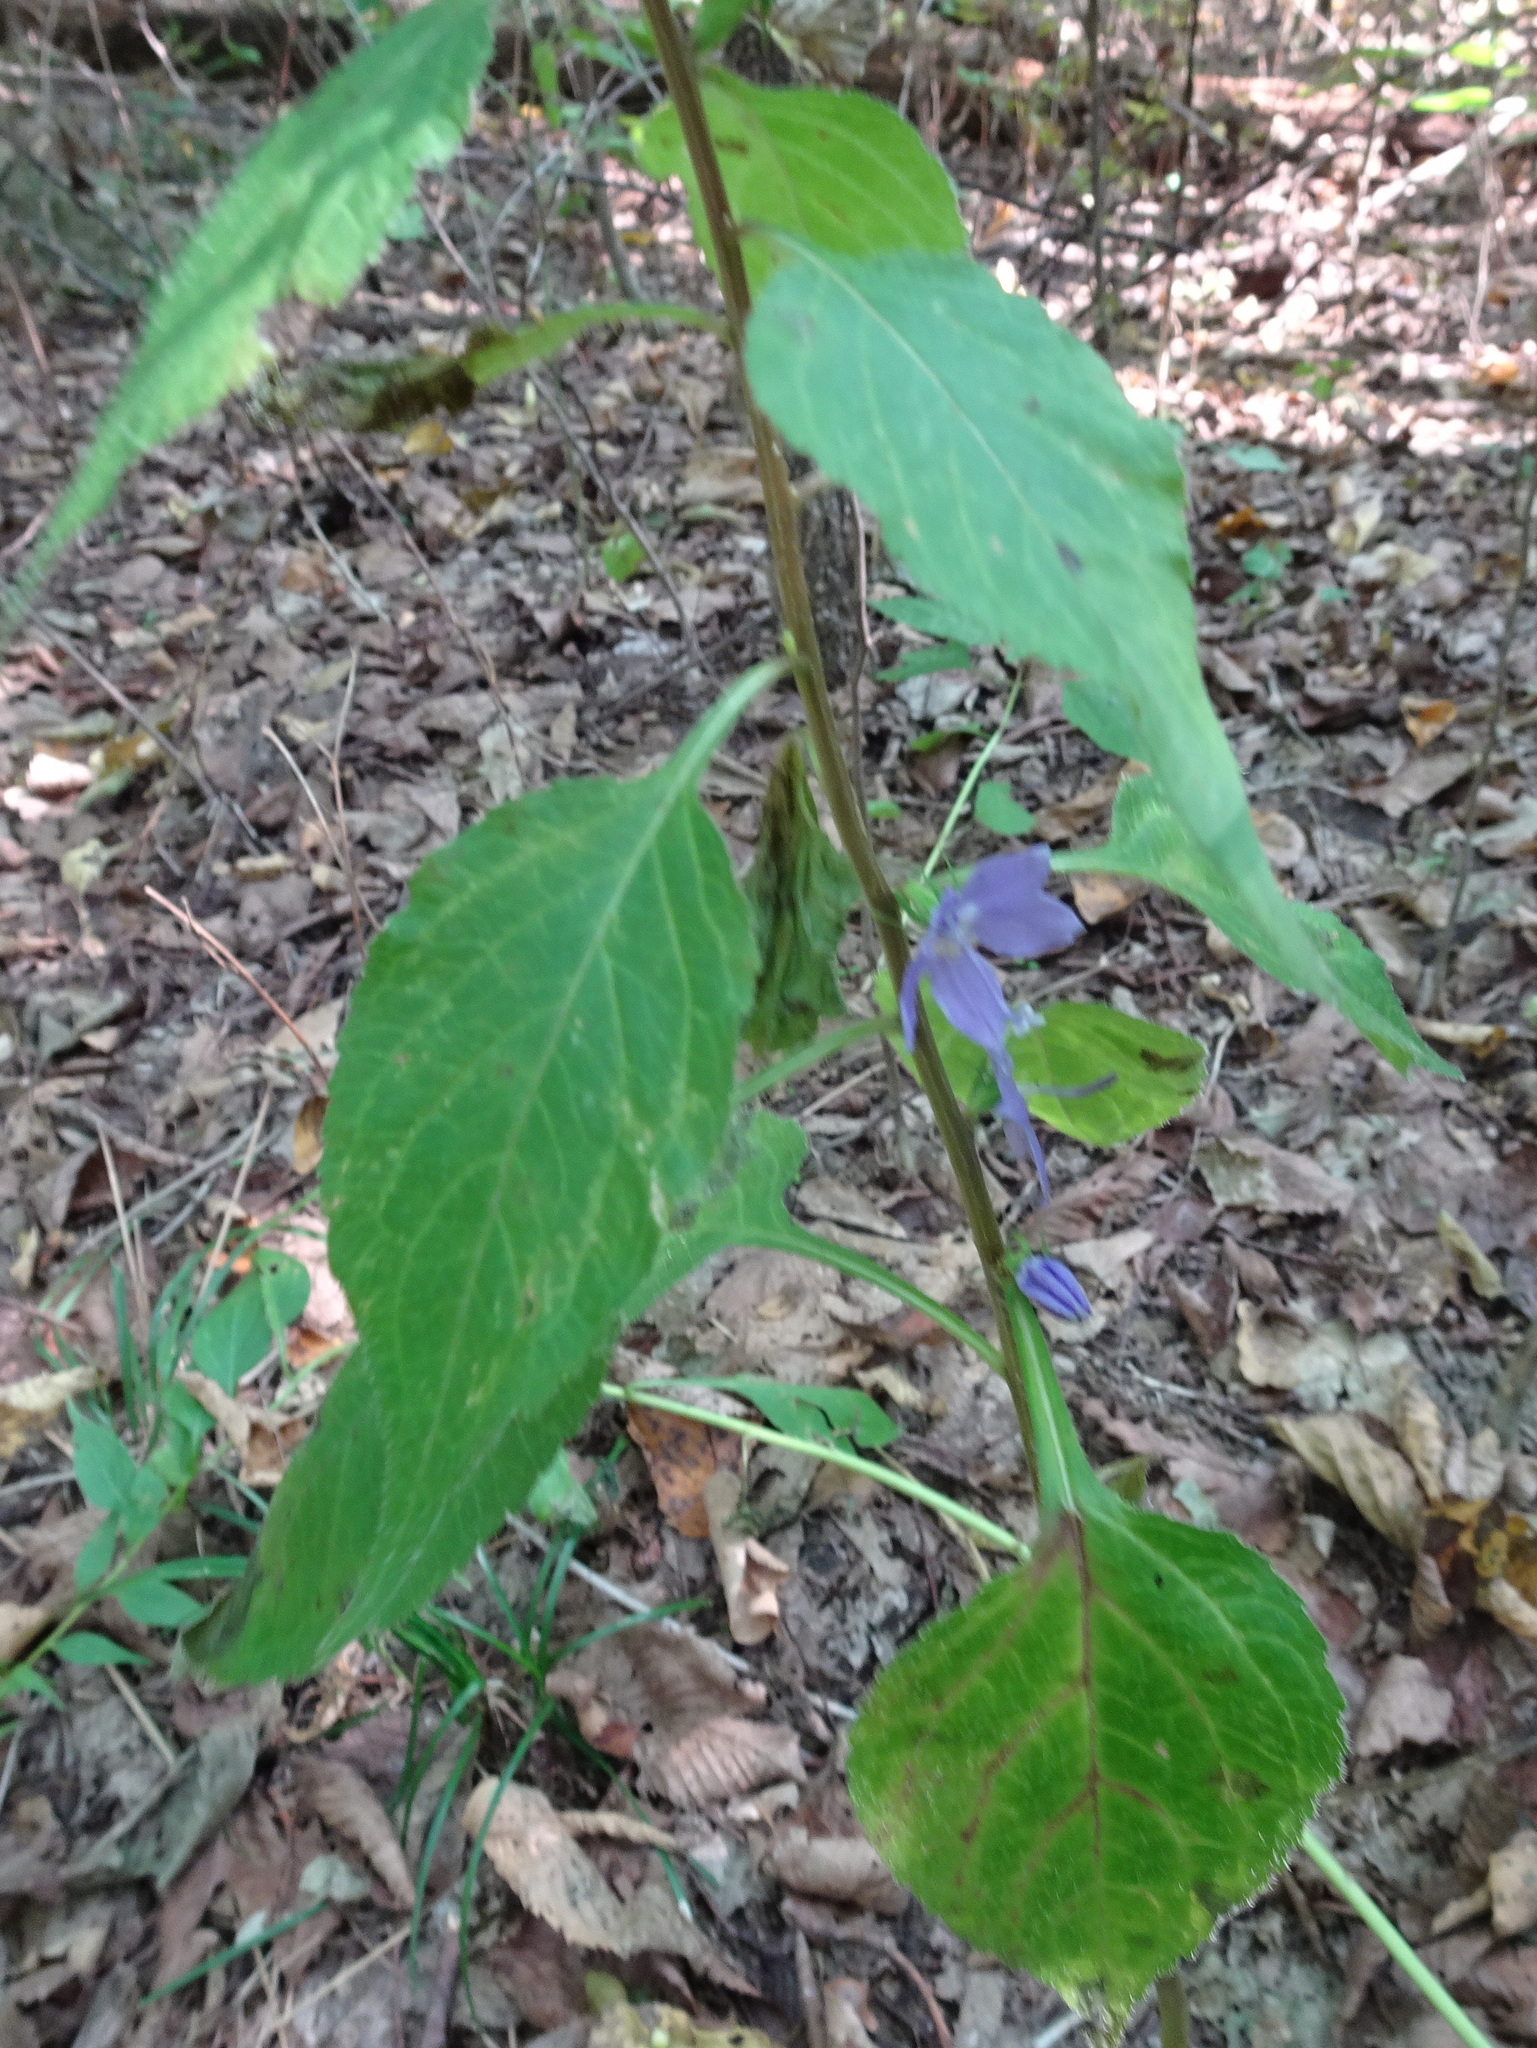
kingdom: Plantae
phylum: Tracheophyta
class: Magnoliopsida
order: Asterales
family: Campanulaceae
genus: Campanulastrum
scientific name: Campanulastrum americanum
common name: American bellflower
